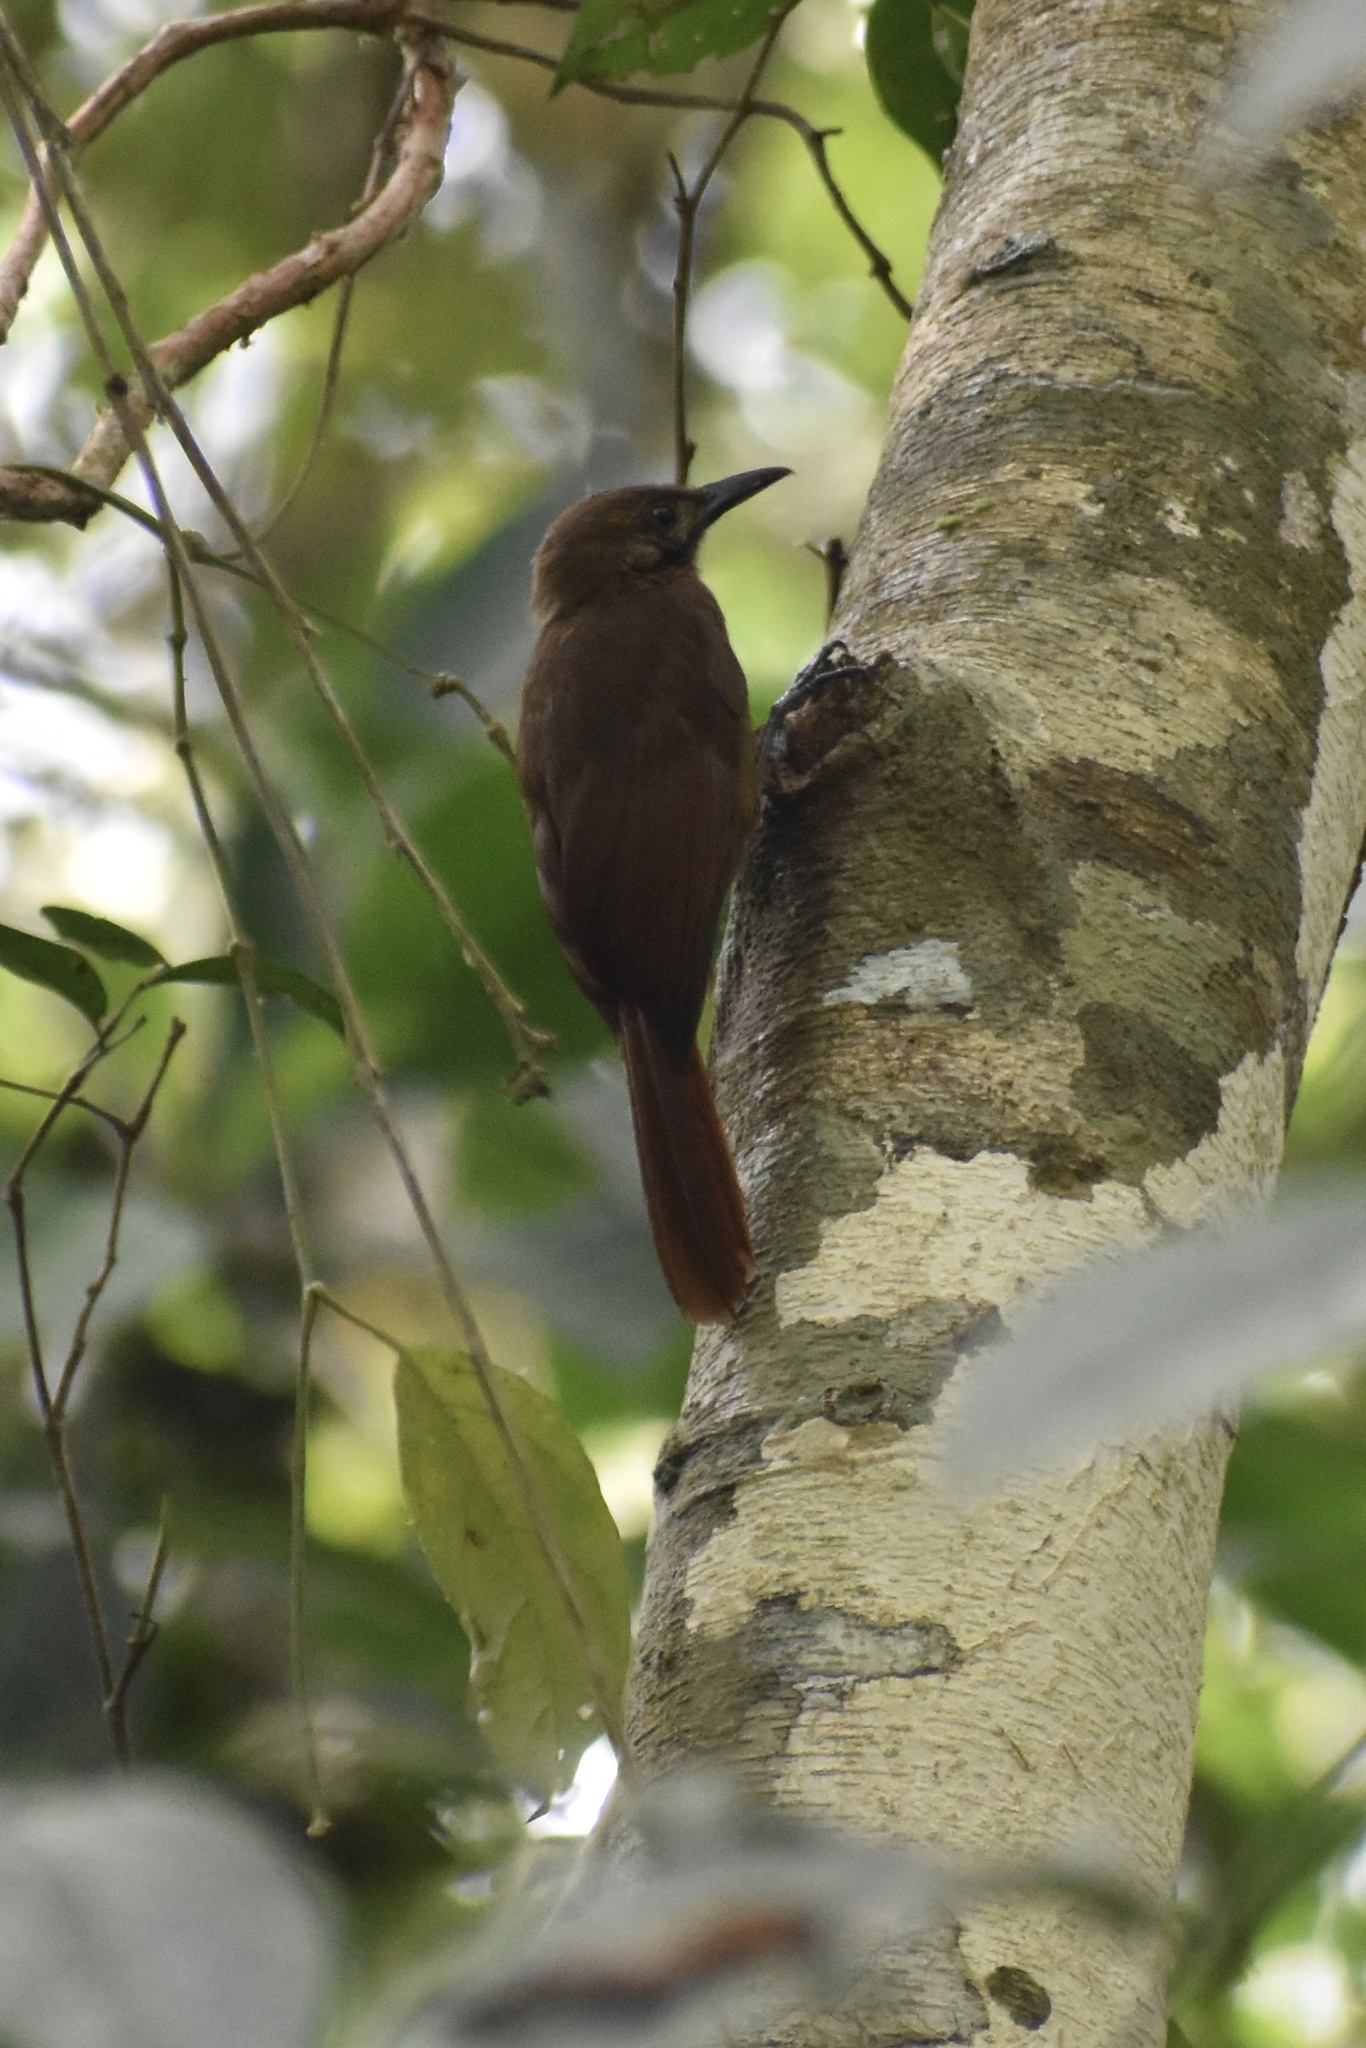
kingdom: Animalia
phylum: Chordata
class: Aves
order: Passeriformes
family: Furnariidae
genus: Dendrocincla
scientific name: Dendrocincla fuliginosa
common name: Plain-brown woodcreeper
